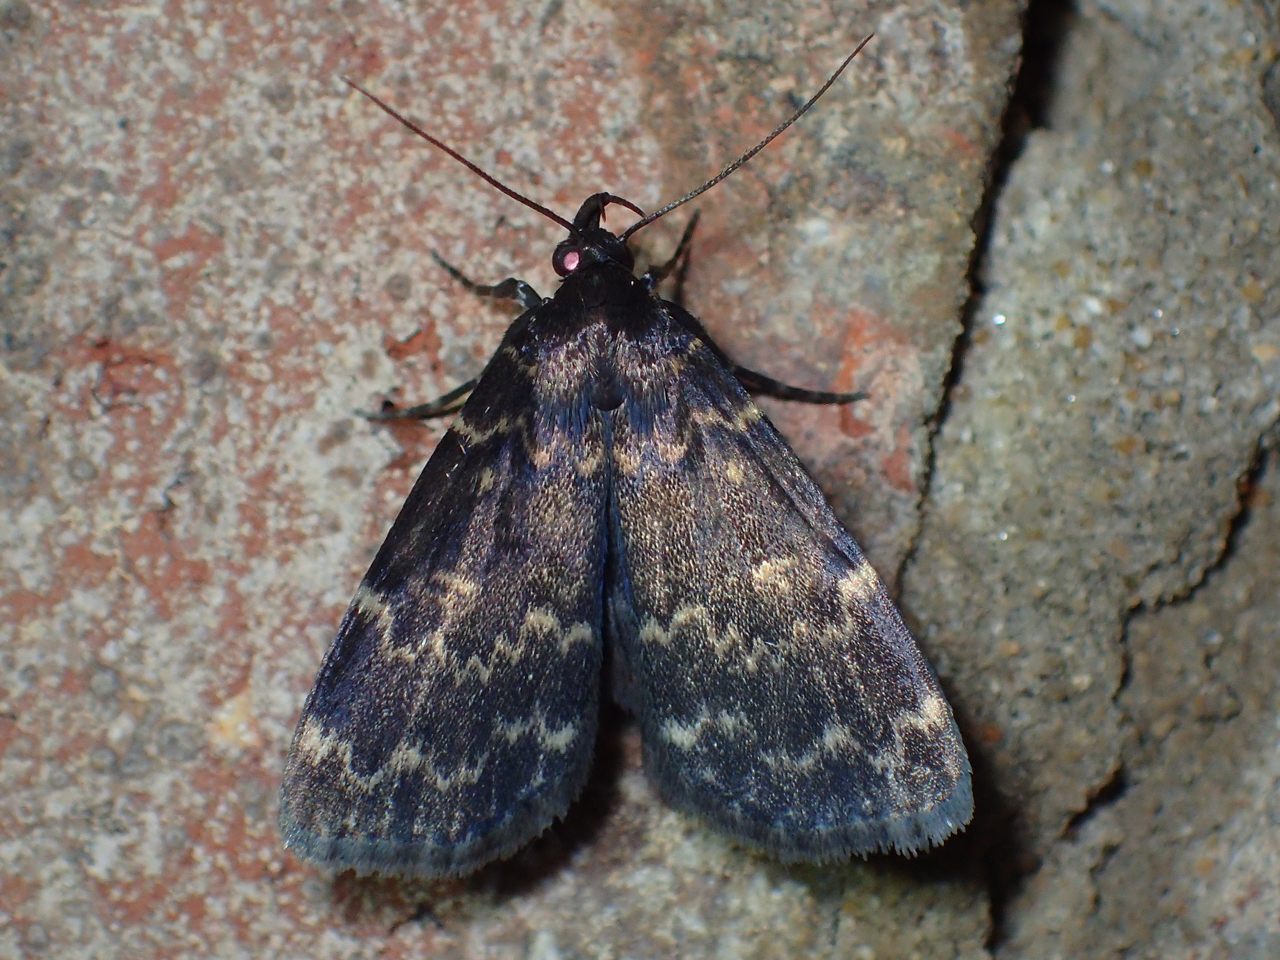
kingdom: Animalia
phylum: Arthropoda
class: Insecta
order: Lepidoptera
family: Erebidae
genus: Idia
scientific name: Idia lubricalis
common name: Twin-striped tabby
